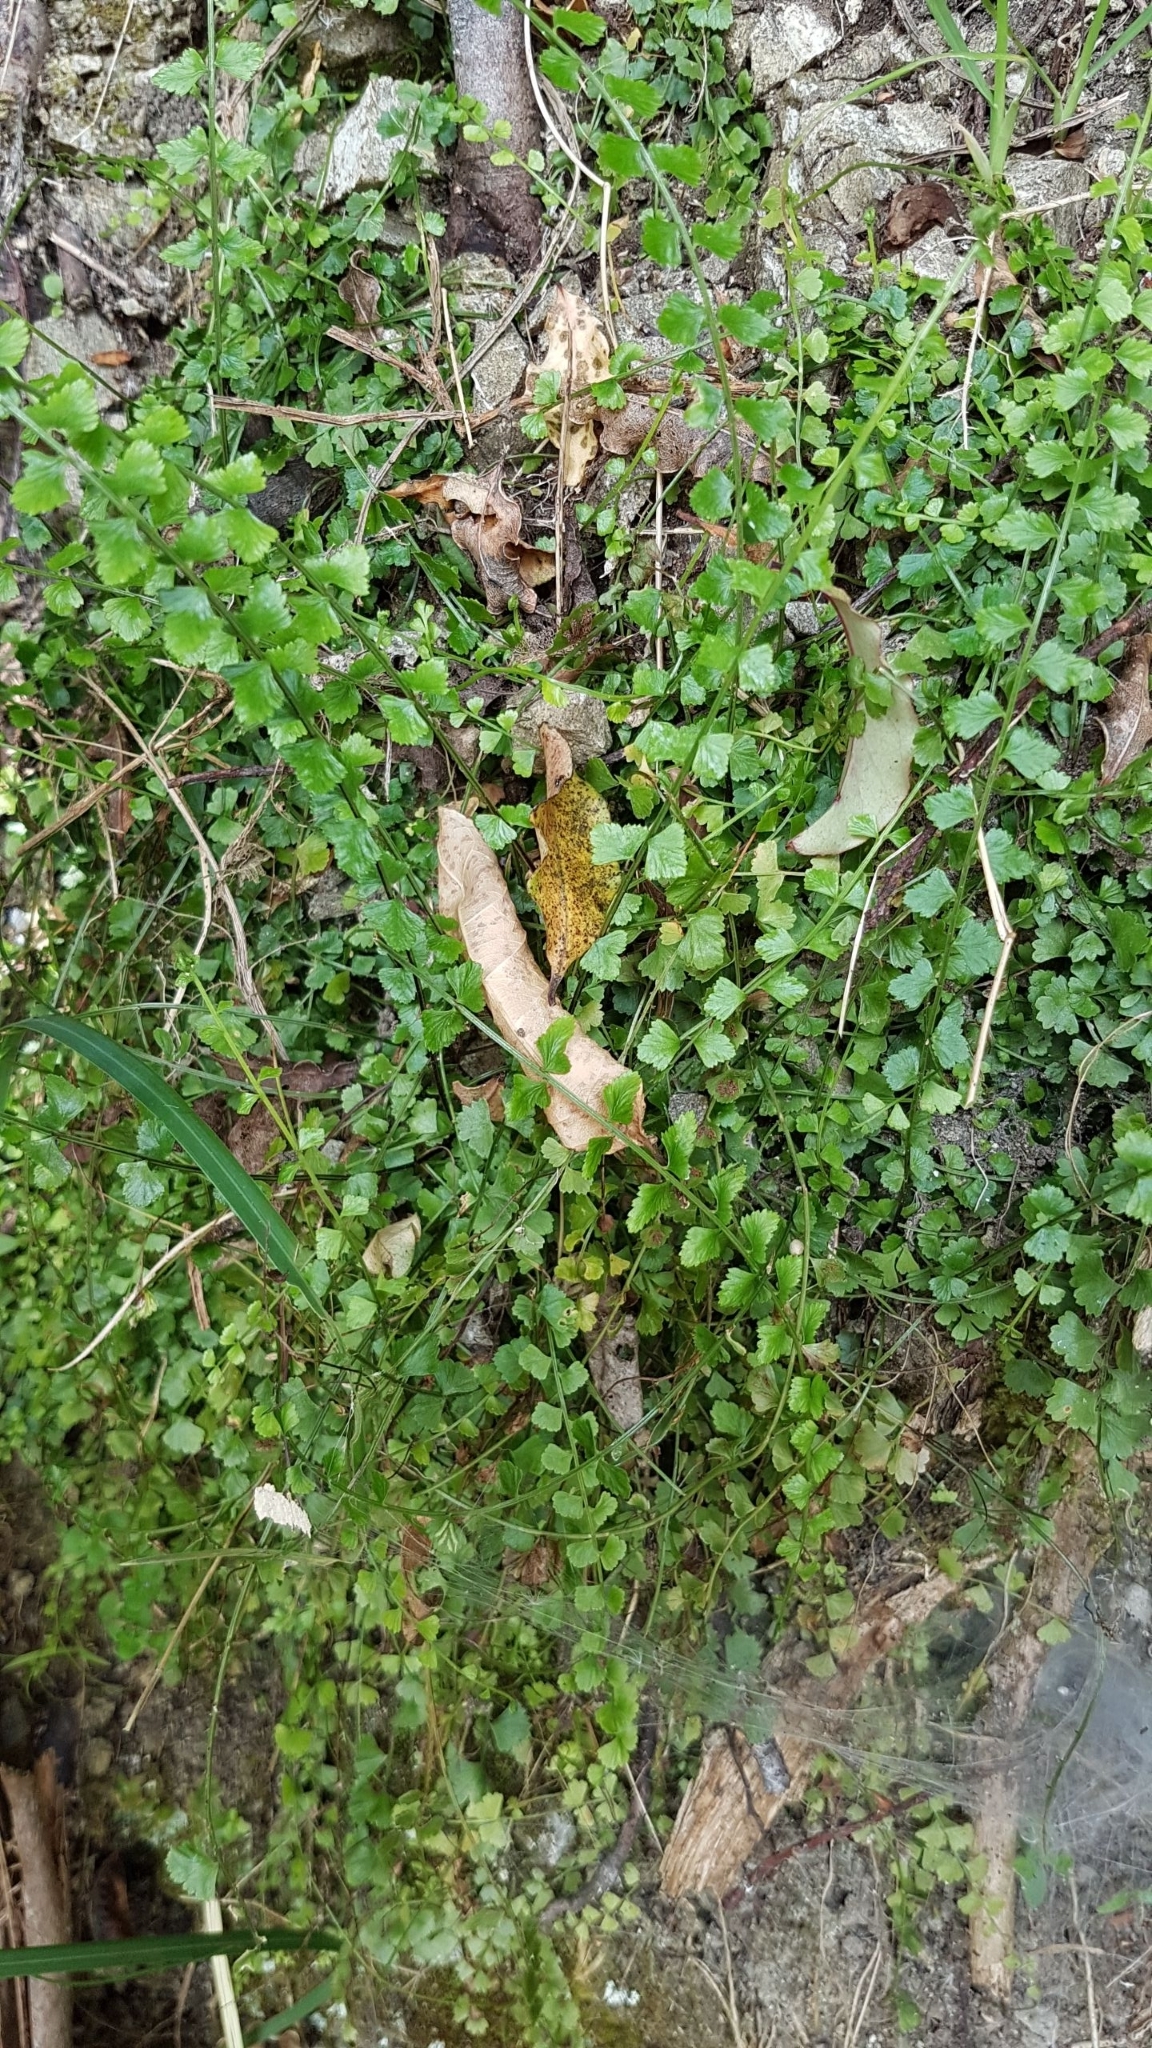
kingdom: Plantae
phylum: Tracheophyta
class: Polypodiopsida
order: Polypodiales
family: Aspleniaceae
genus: Asplenium
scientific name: Asplenium flabellifolium
